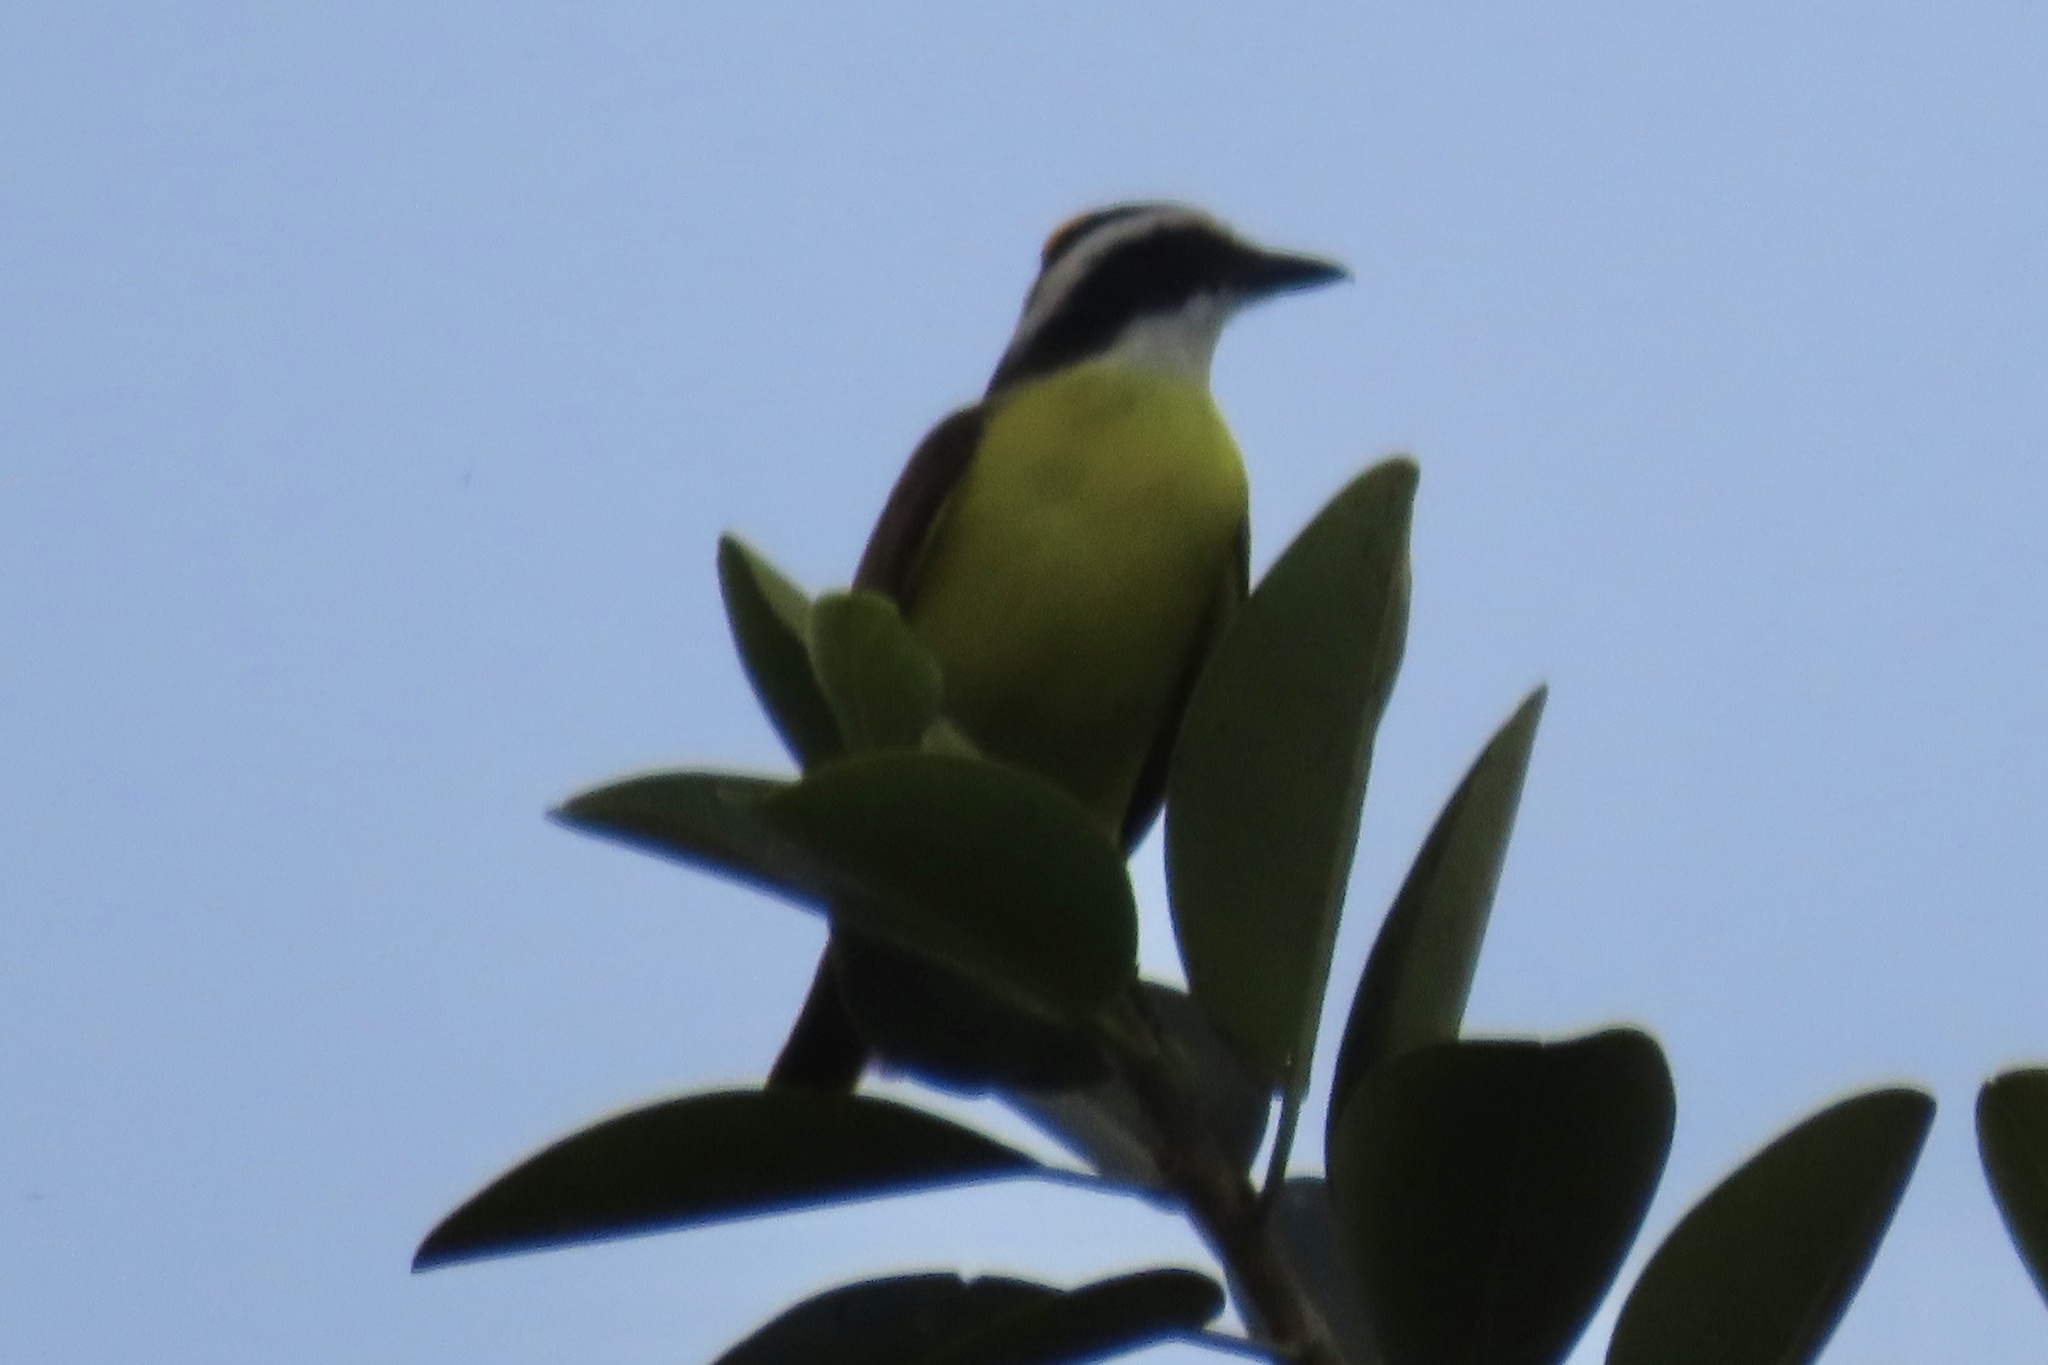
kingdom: Animalia
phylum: Chordata
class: Aves
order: Passeriformes
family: Tyrannidae
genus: Pitangus
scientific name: Pitangus sulphuratus
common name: Great kiskadee
